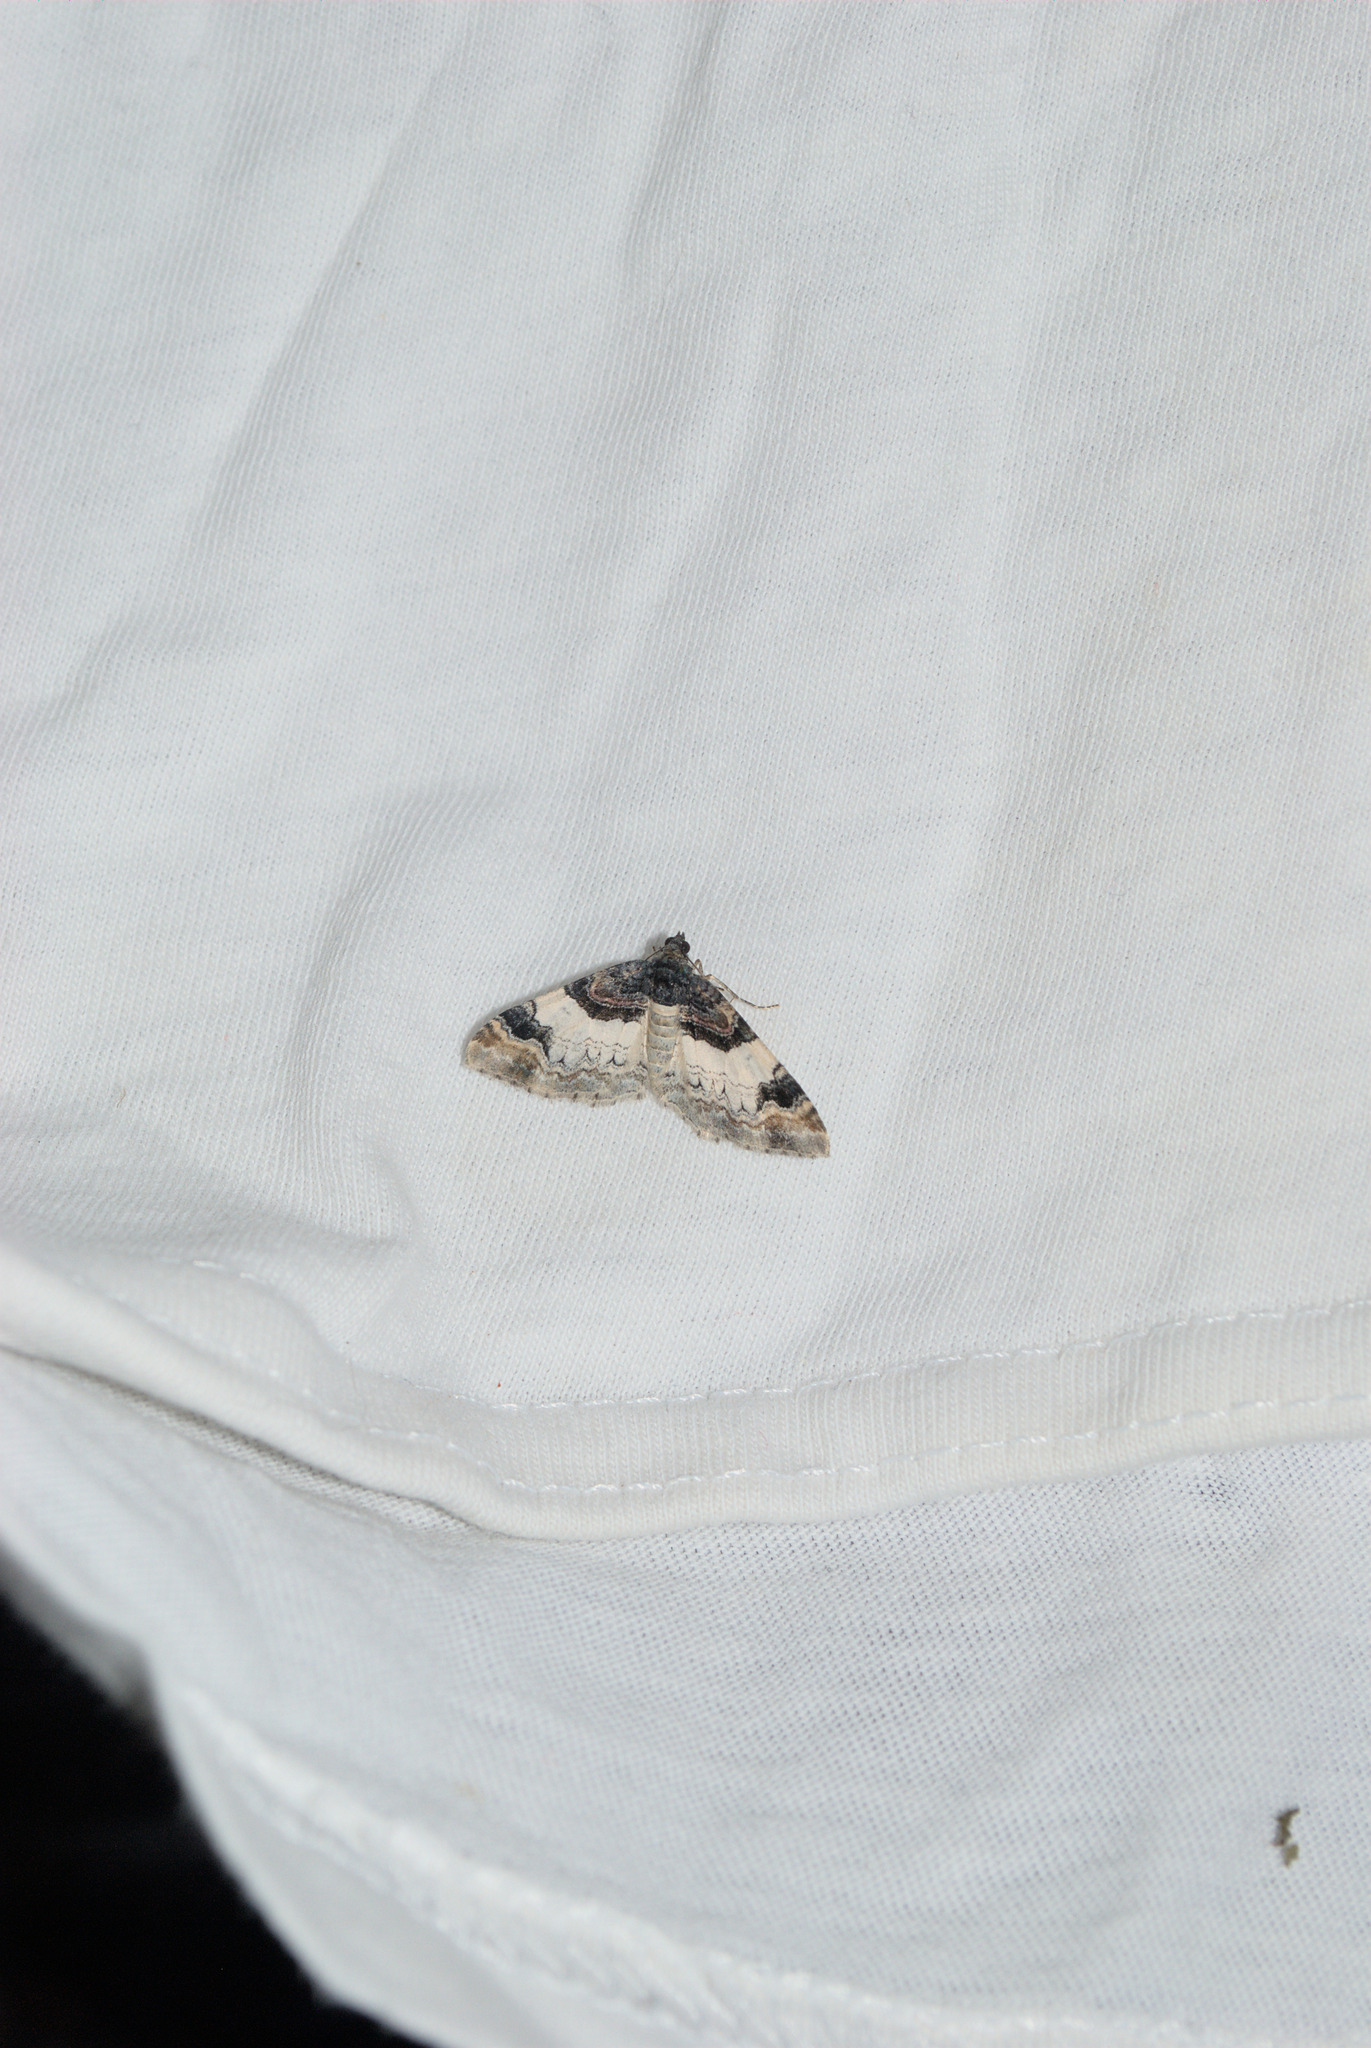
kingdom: Animalia
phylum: Arthropoda
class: Insecta
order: Lepidoptera
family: Geometridae
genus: Catarhoe
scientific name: Catarhoe cuculata
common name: Royal mantle
